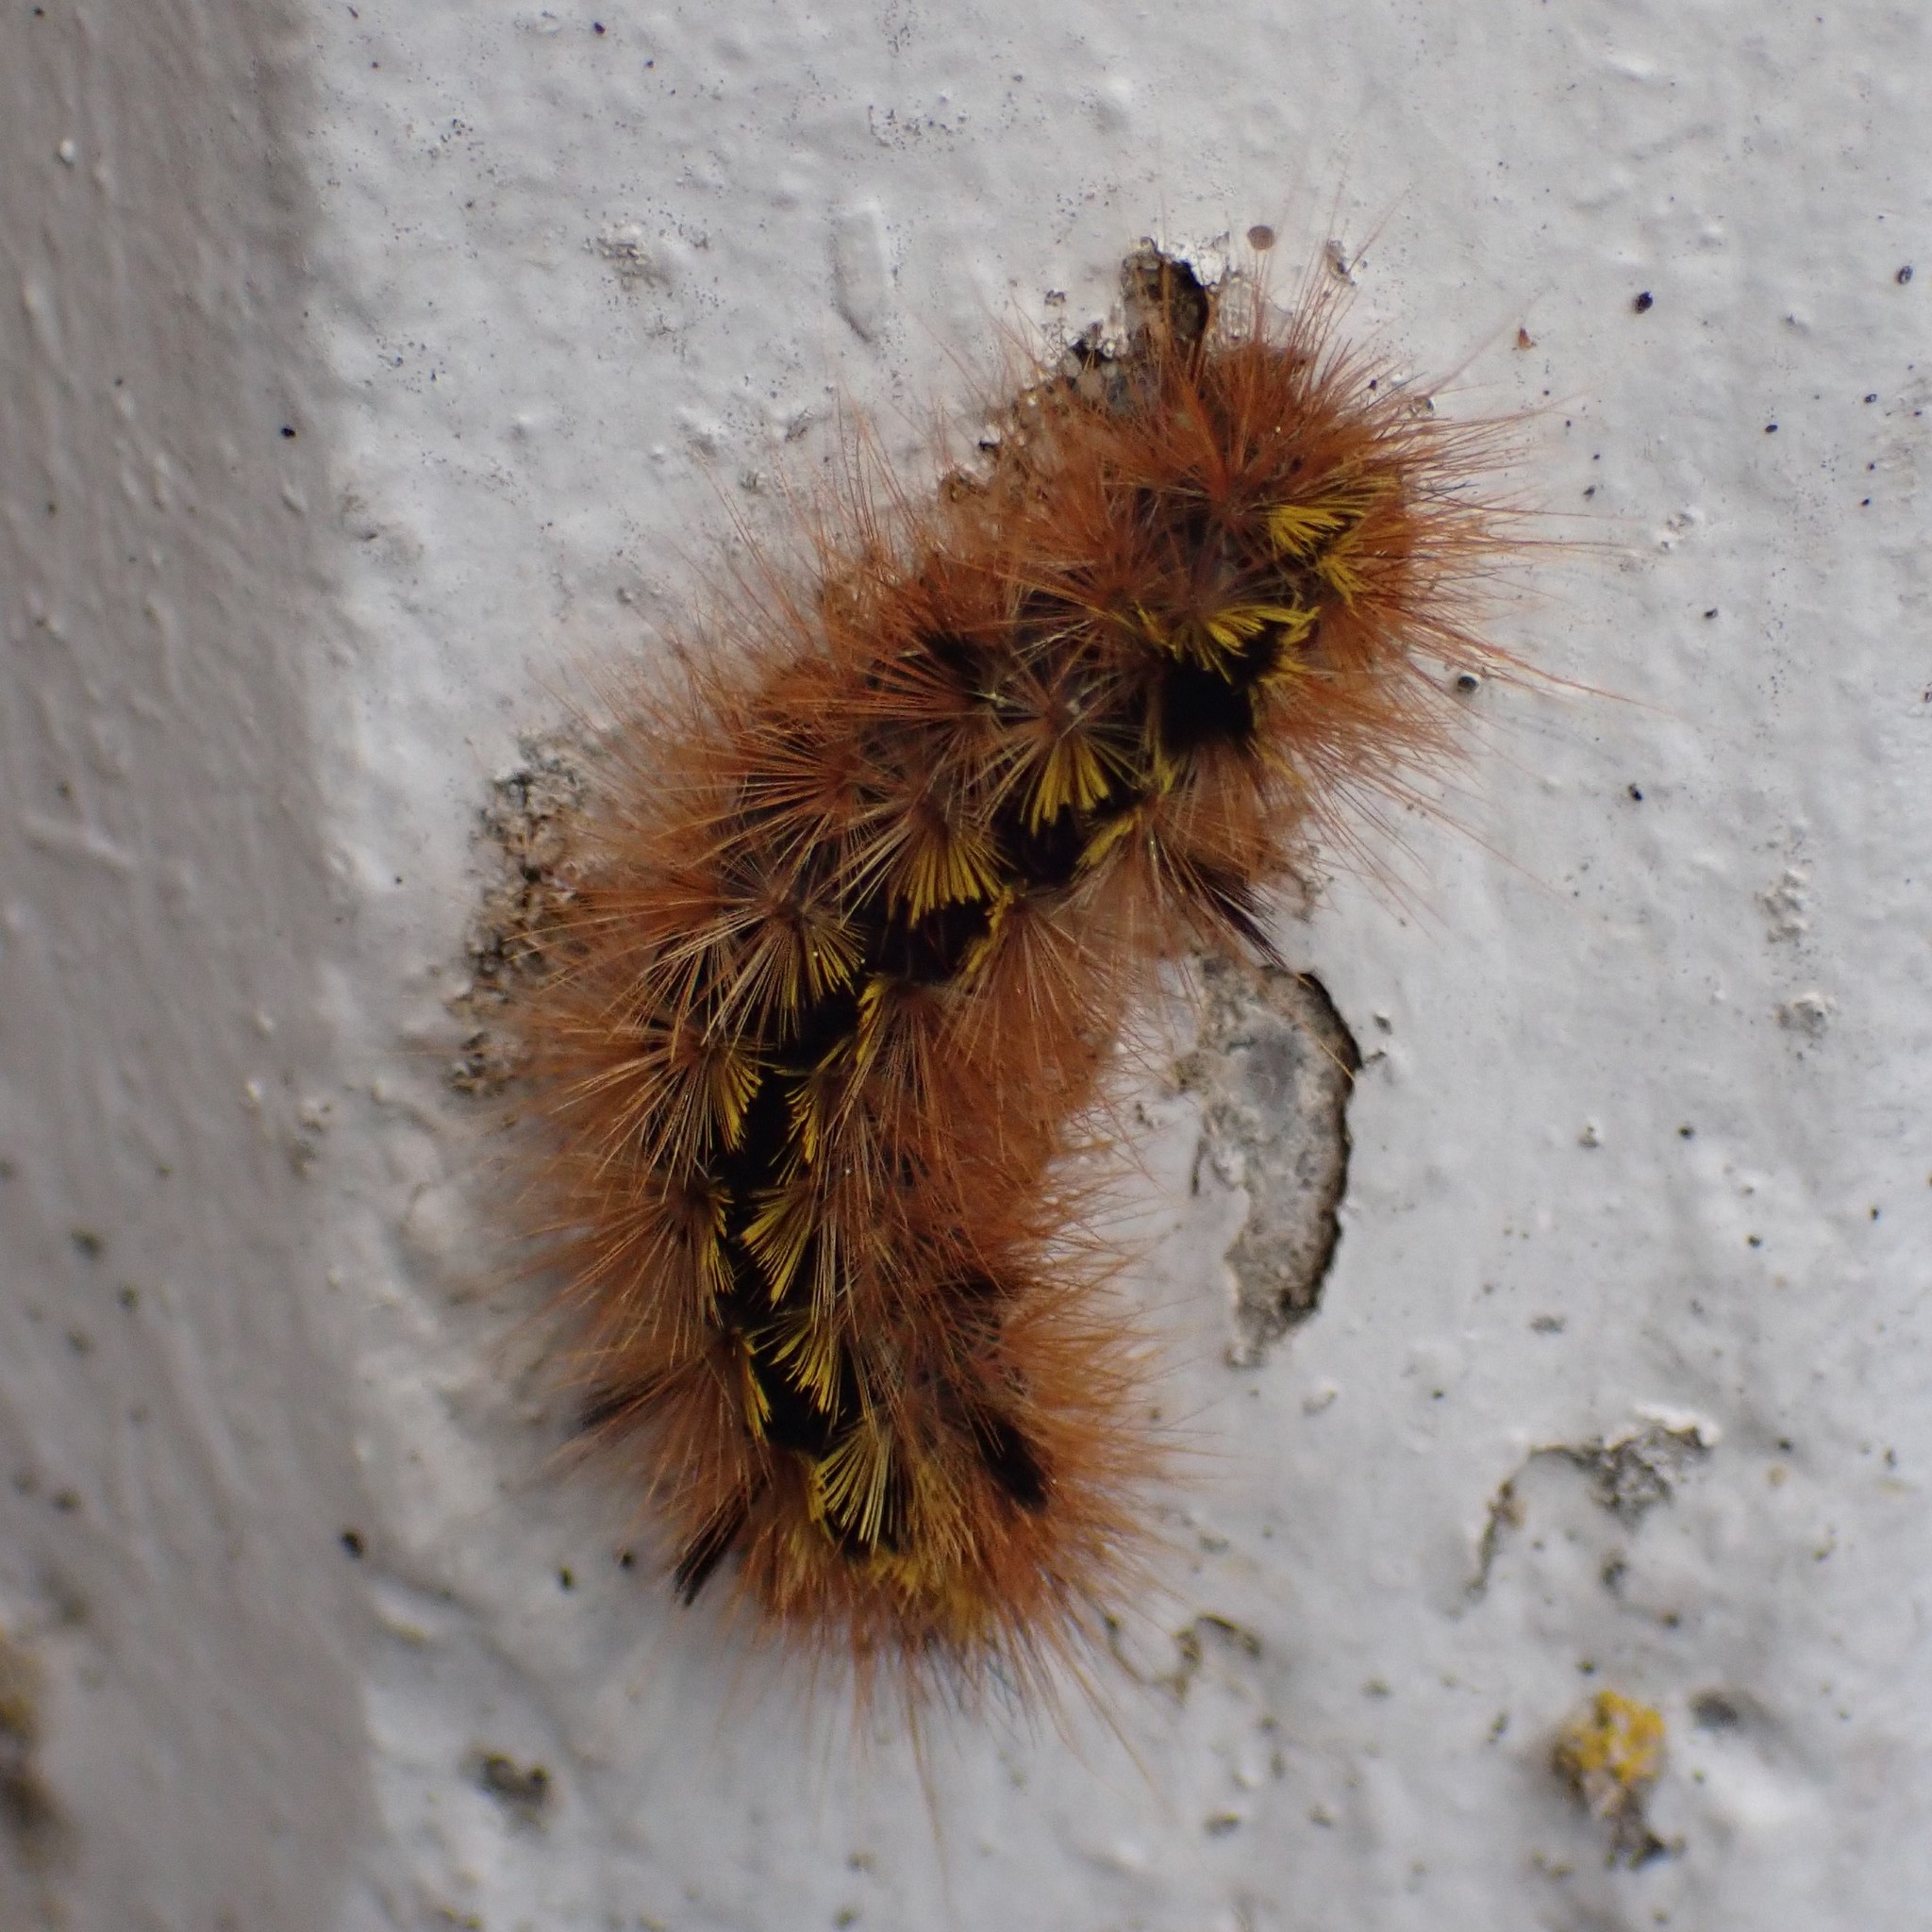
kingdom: Animalia
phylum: Arthropoda
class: Insecta
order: Lepidoptera
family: Erebidae
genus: Lophocampa
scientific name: Lophocampa argentata
